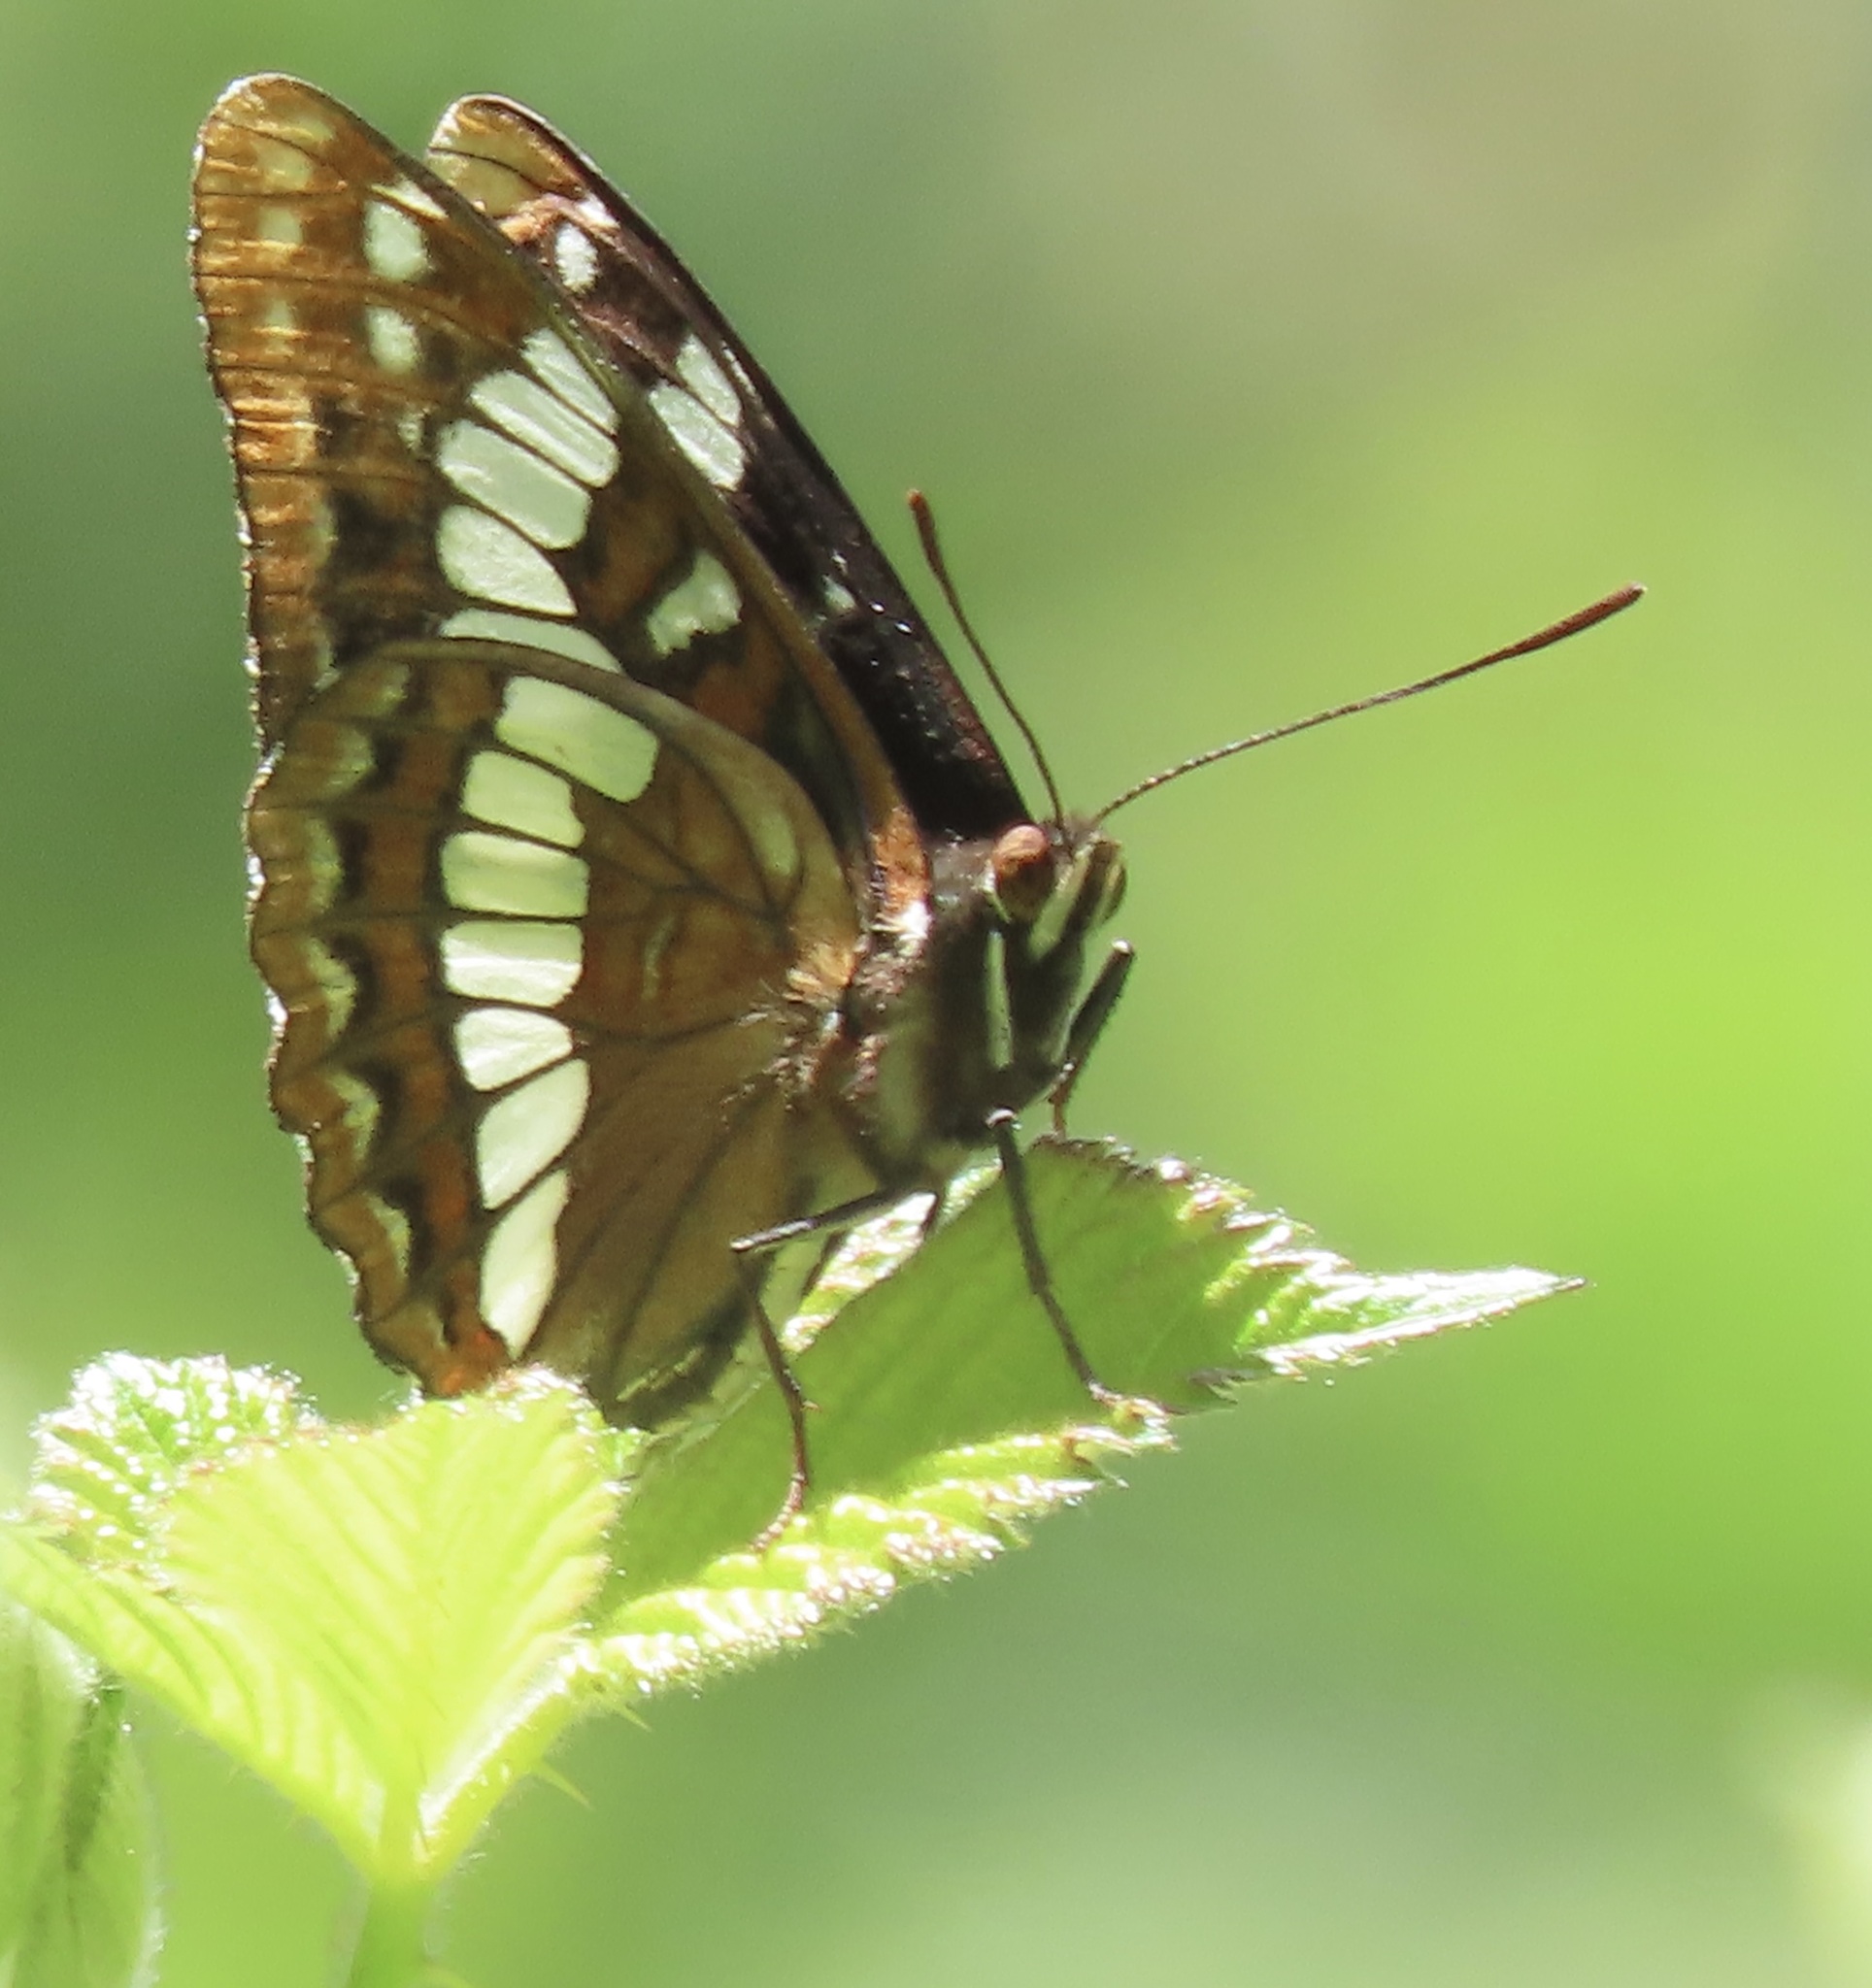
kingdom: Animalia
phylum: Arthropoda
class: Insecta
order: Lepidoptera
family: Nymphalidae
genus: Limenitis
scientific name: Limenitis lorquini
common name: Lorquin's admiral
